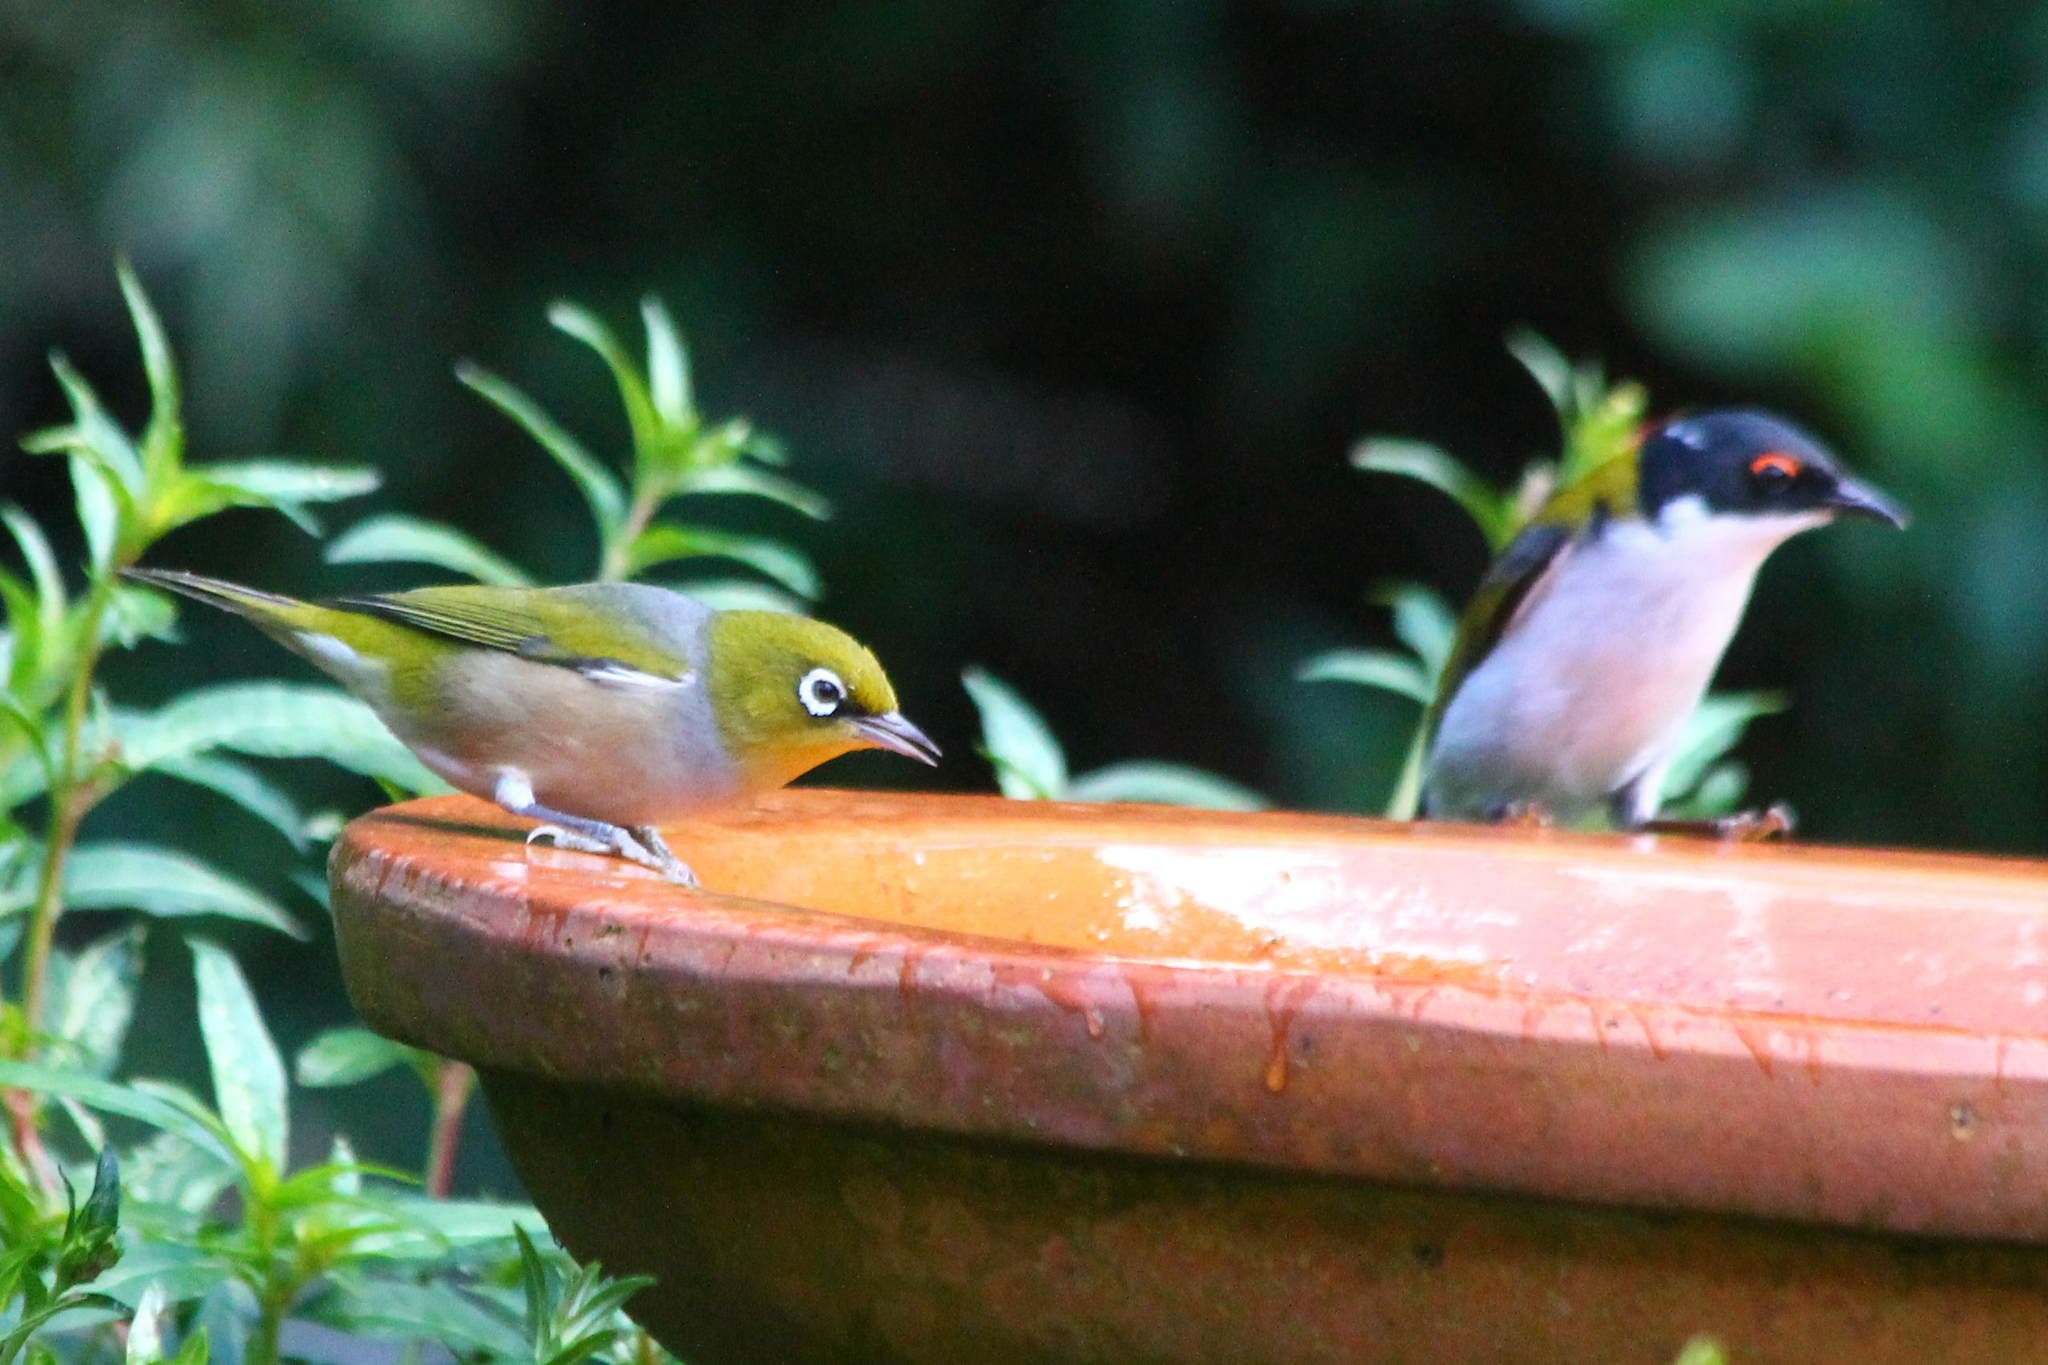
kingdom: Animalia
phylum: Chordata
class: Aves
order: Passeriformes
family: Zosteropidae
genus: Zosterops
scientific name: Zosterops lateralis
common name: Silvereye
